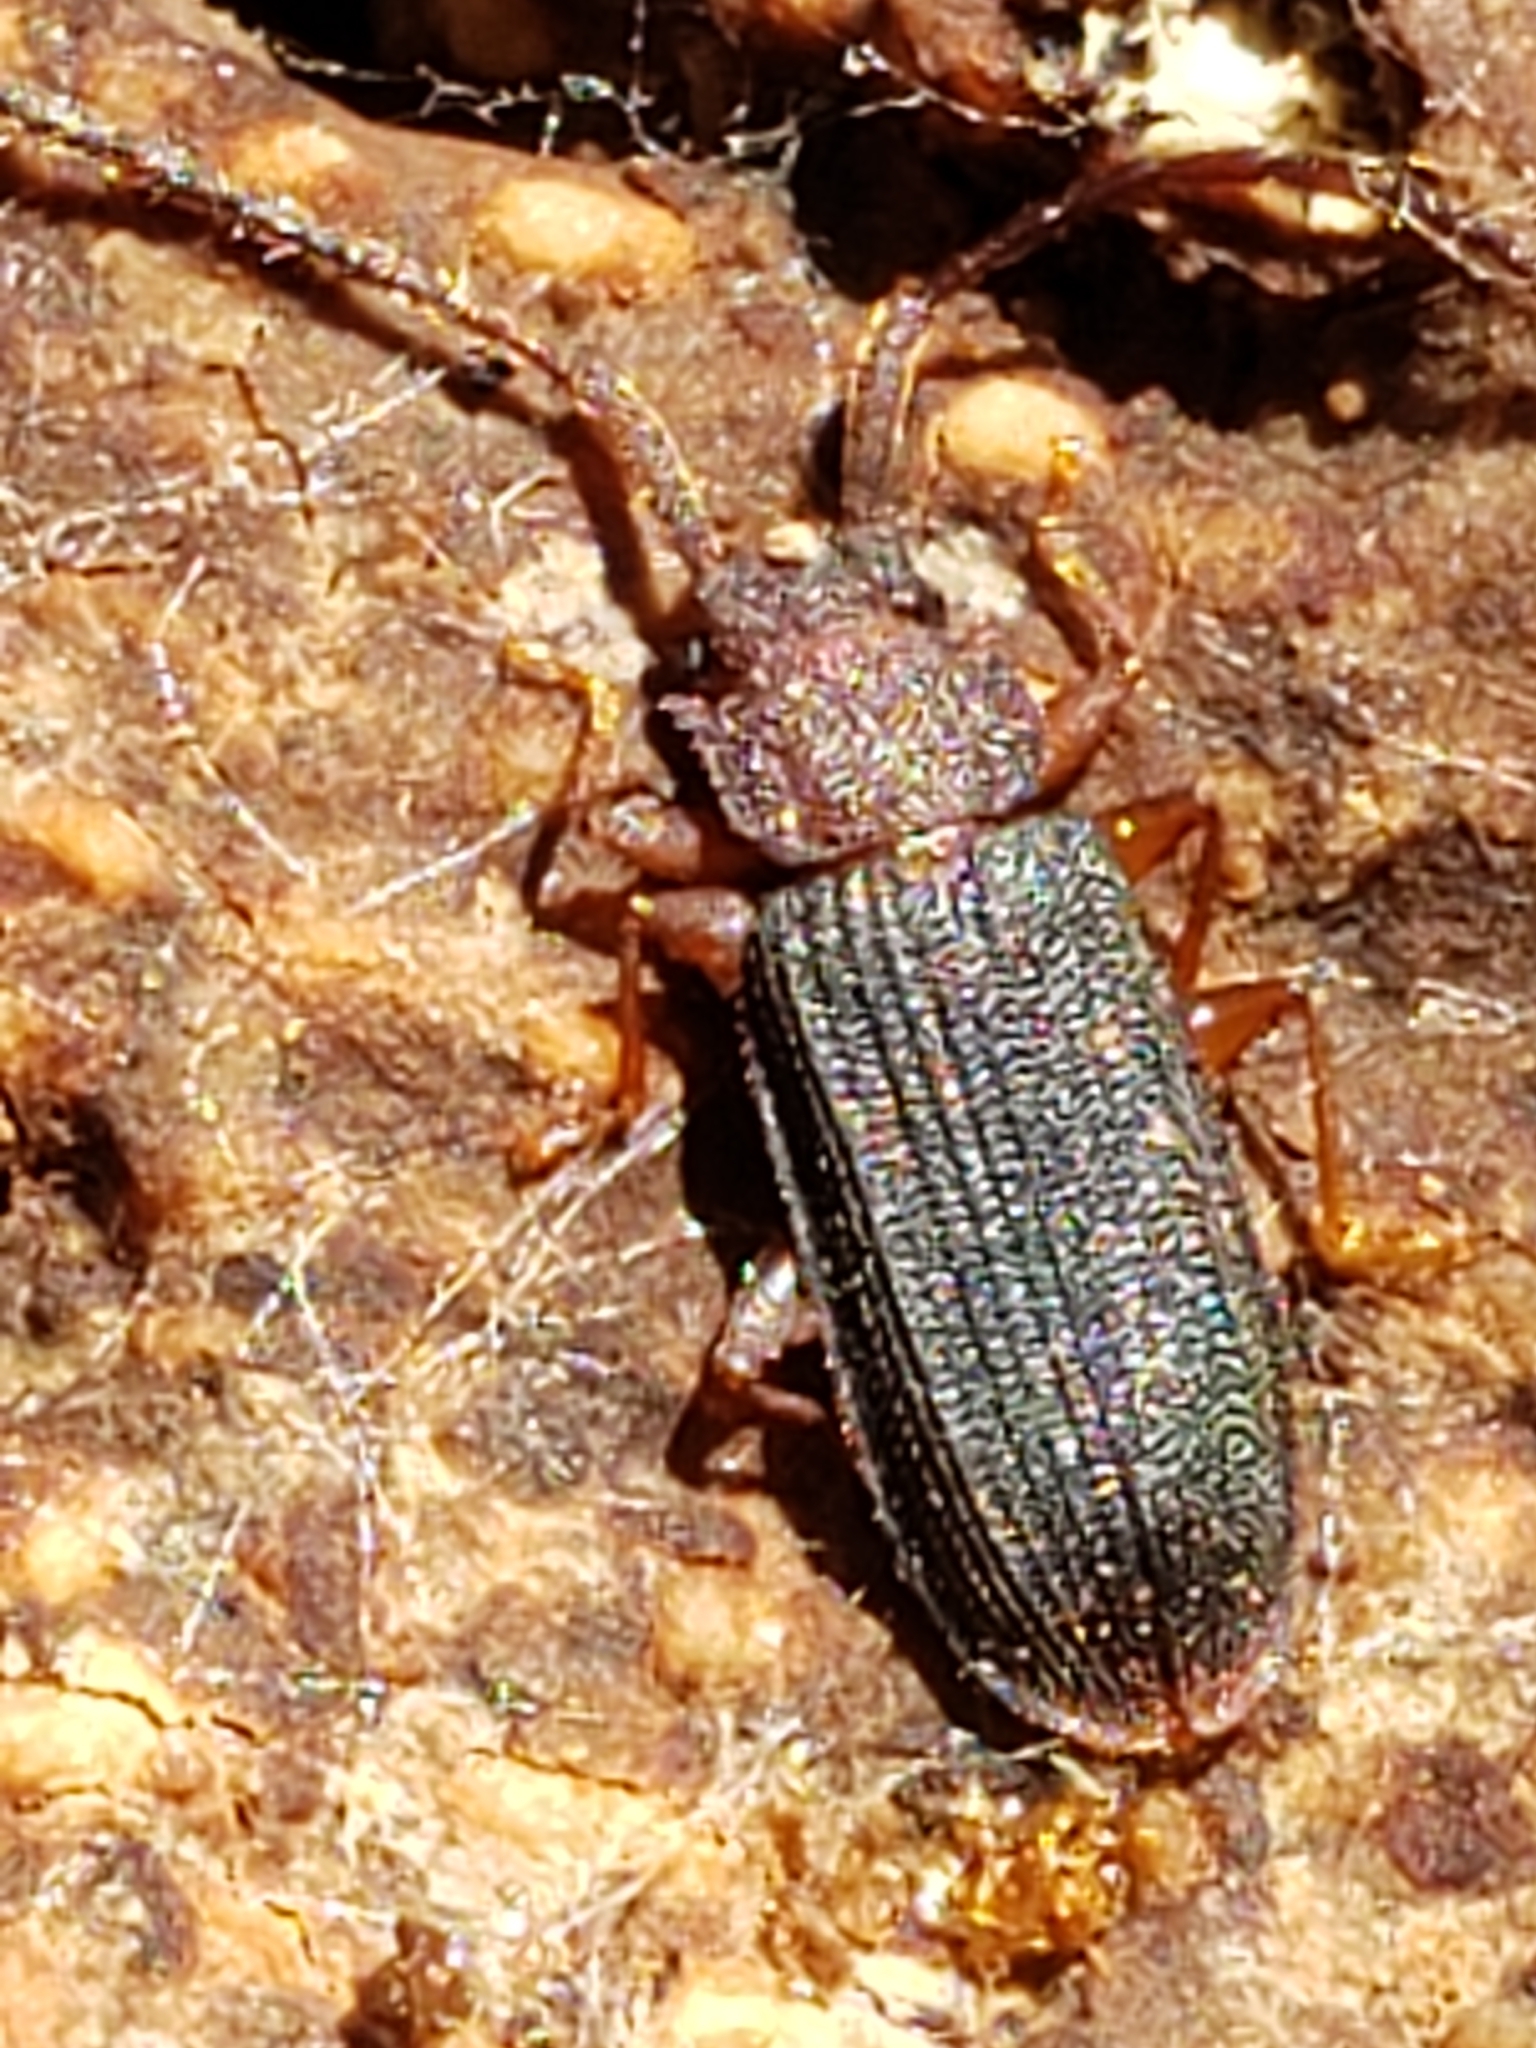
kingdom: Animalia
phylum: Arthropoda
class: Insecta
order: Coleoptera
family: Silvanidae
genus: Uleiota
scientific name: Uleiota dubia
